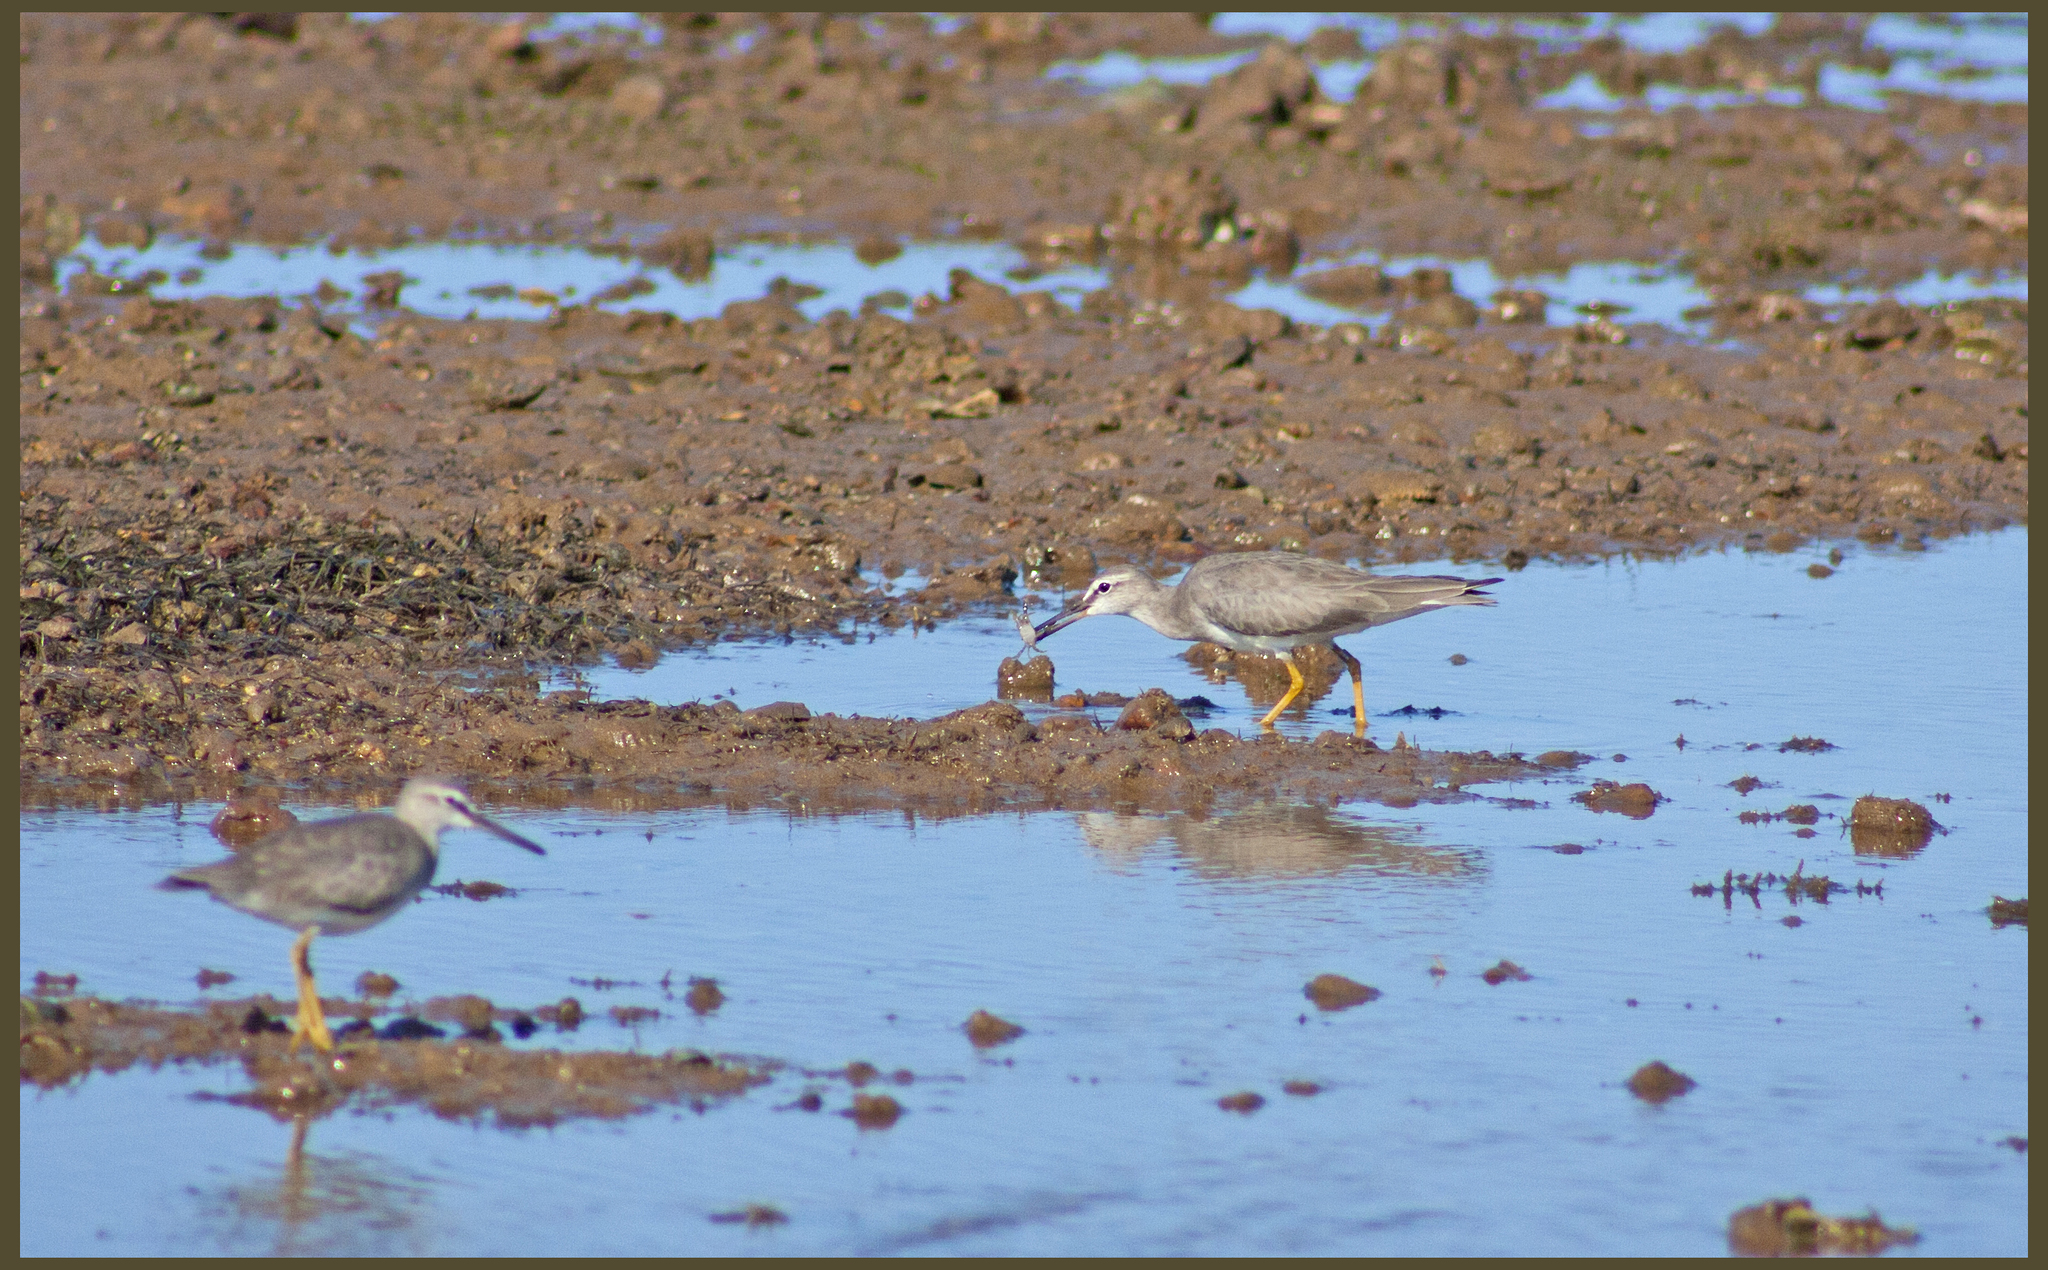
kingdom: Animalia
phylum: Chordata
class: Aves
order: Charadriiformes
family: Scolopacidae
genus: Tringa
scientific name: Tringa brevipes
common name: Grey-tailed tattler
